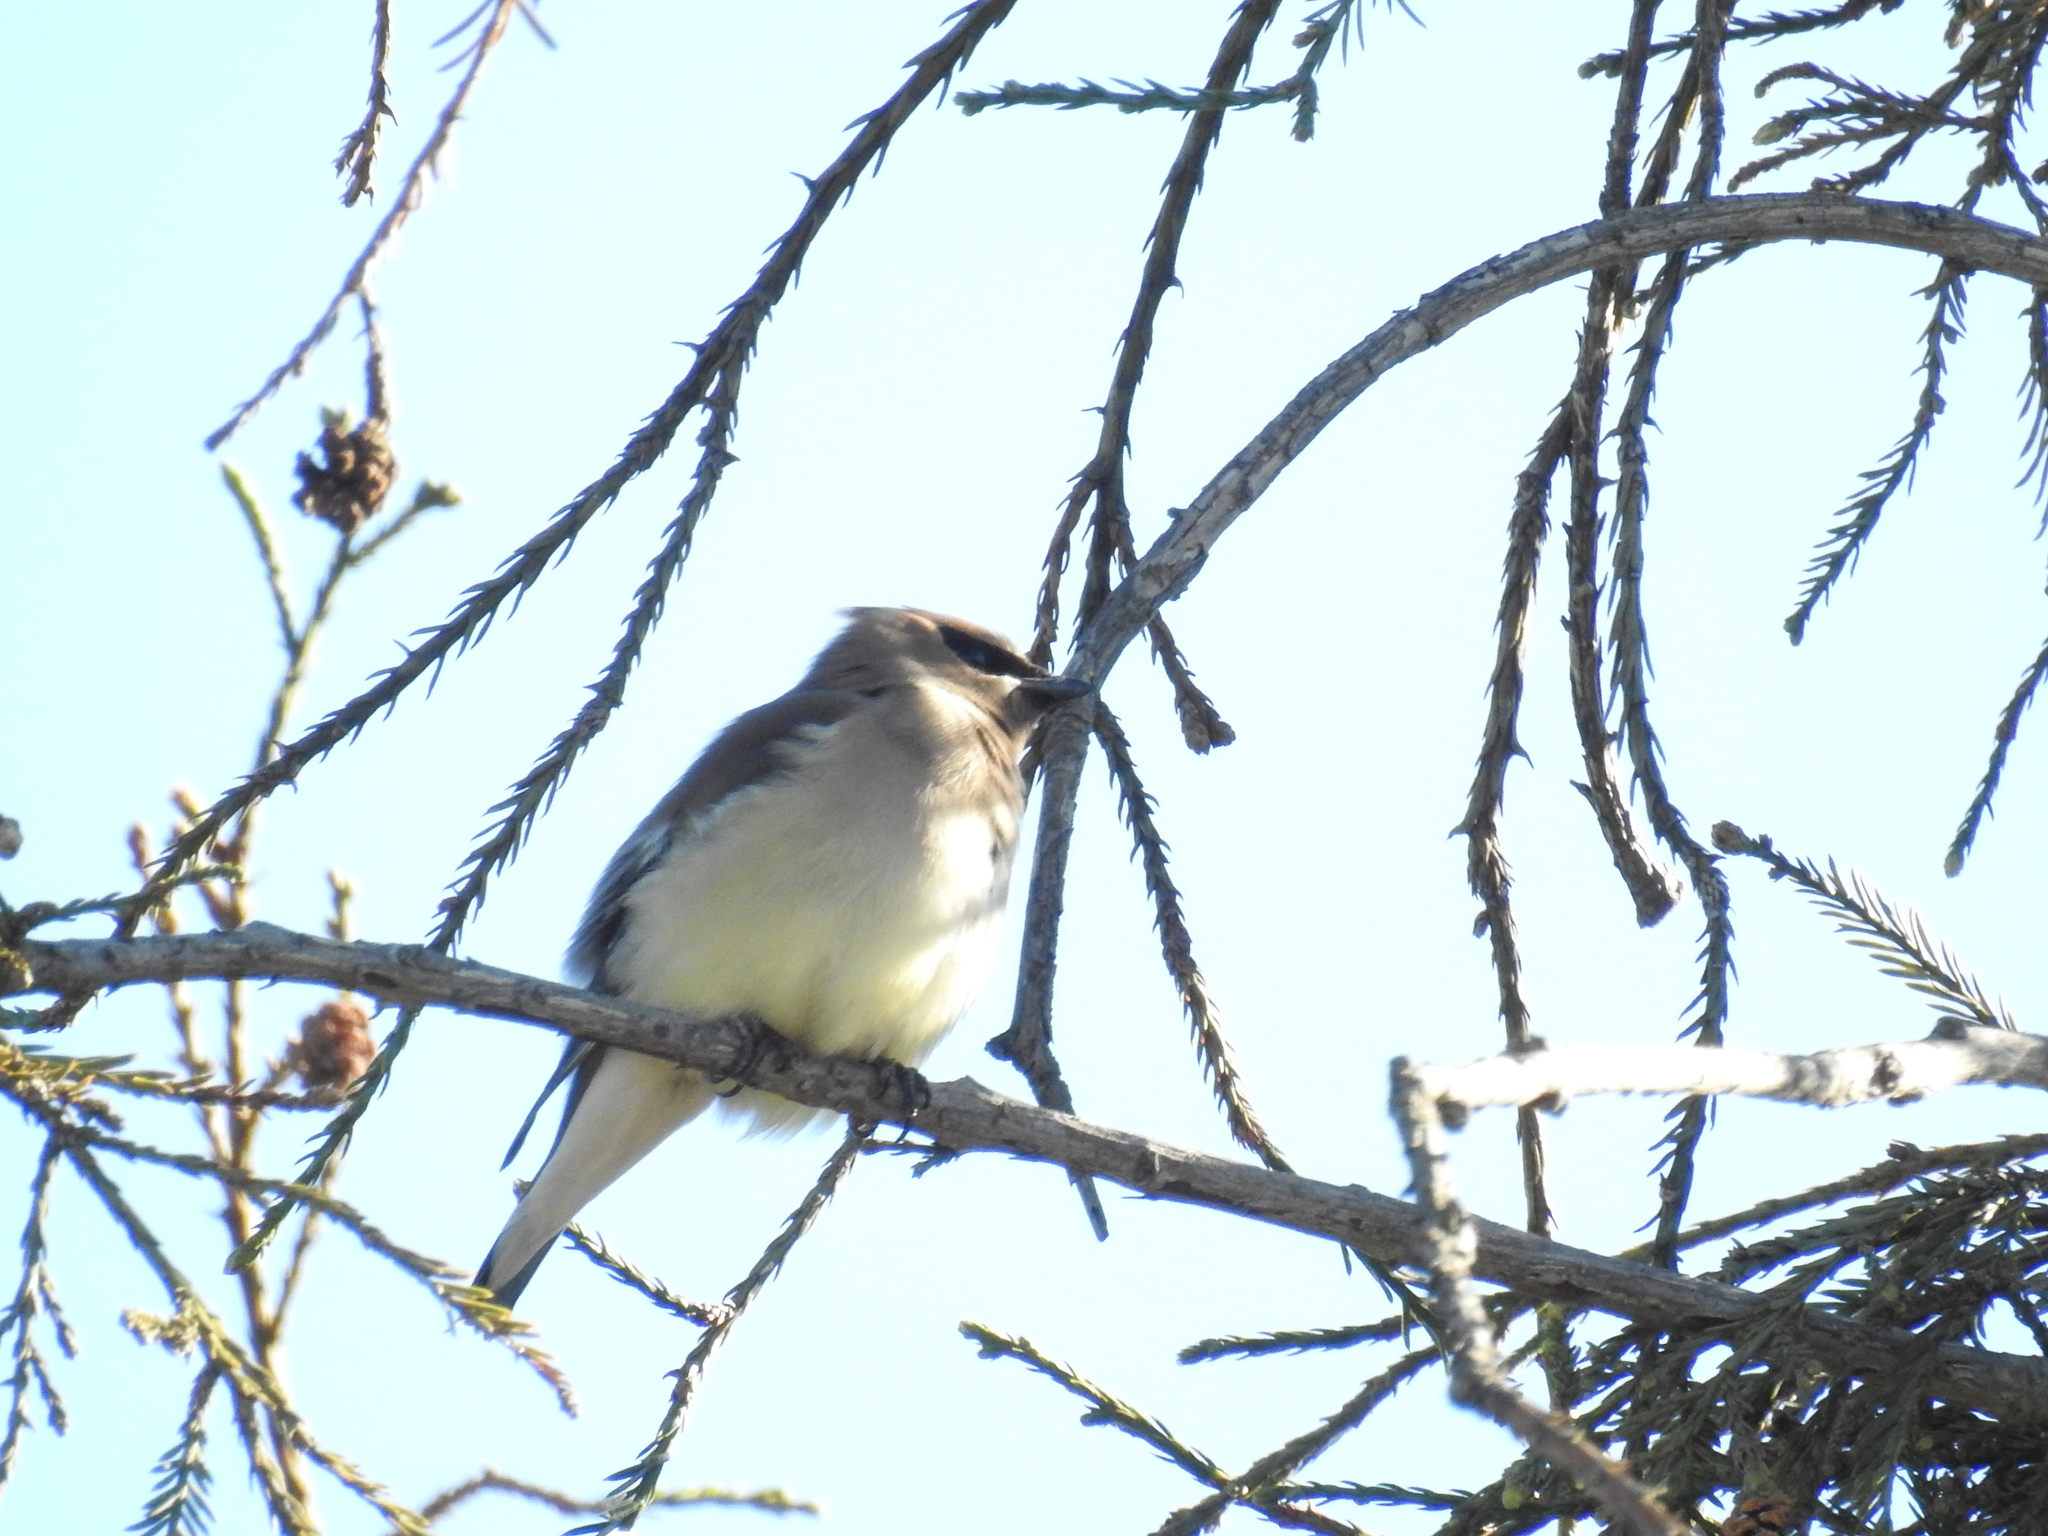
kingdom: Animalia
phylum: Chordata
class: Aves
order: Passeriformes
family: Bombycillidae
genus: Bombycilla
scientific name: Bombycilla cedrorum
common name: Cedar waxwing
